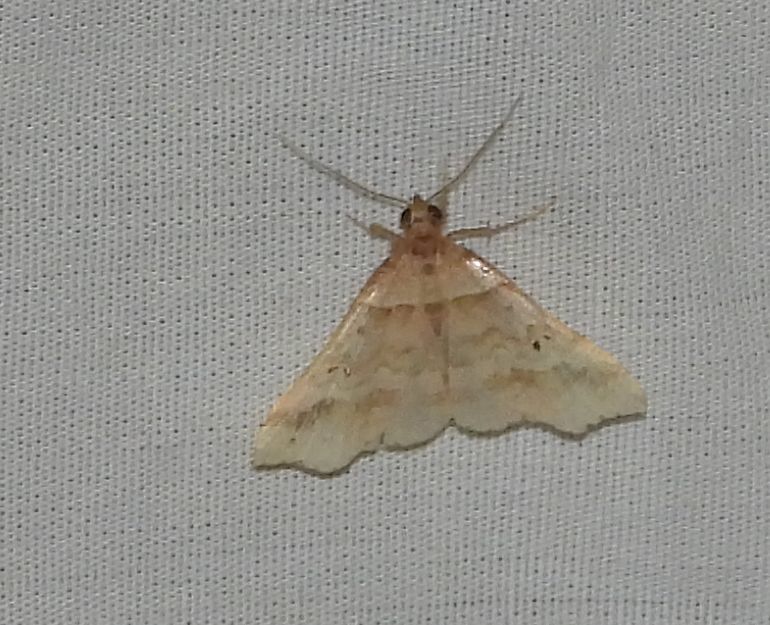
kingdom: Animalia
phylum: Arthropoda
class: Insecta
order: Lepidoptera
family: Erebidae
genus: Phaeolita
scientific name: Phaeolita pyramusalis
